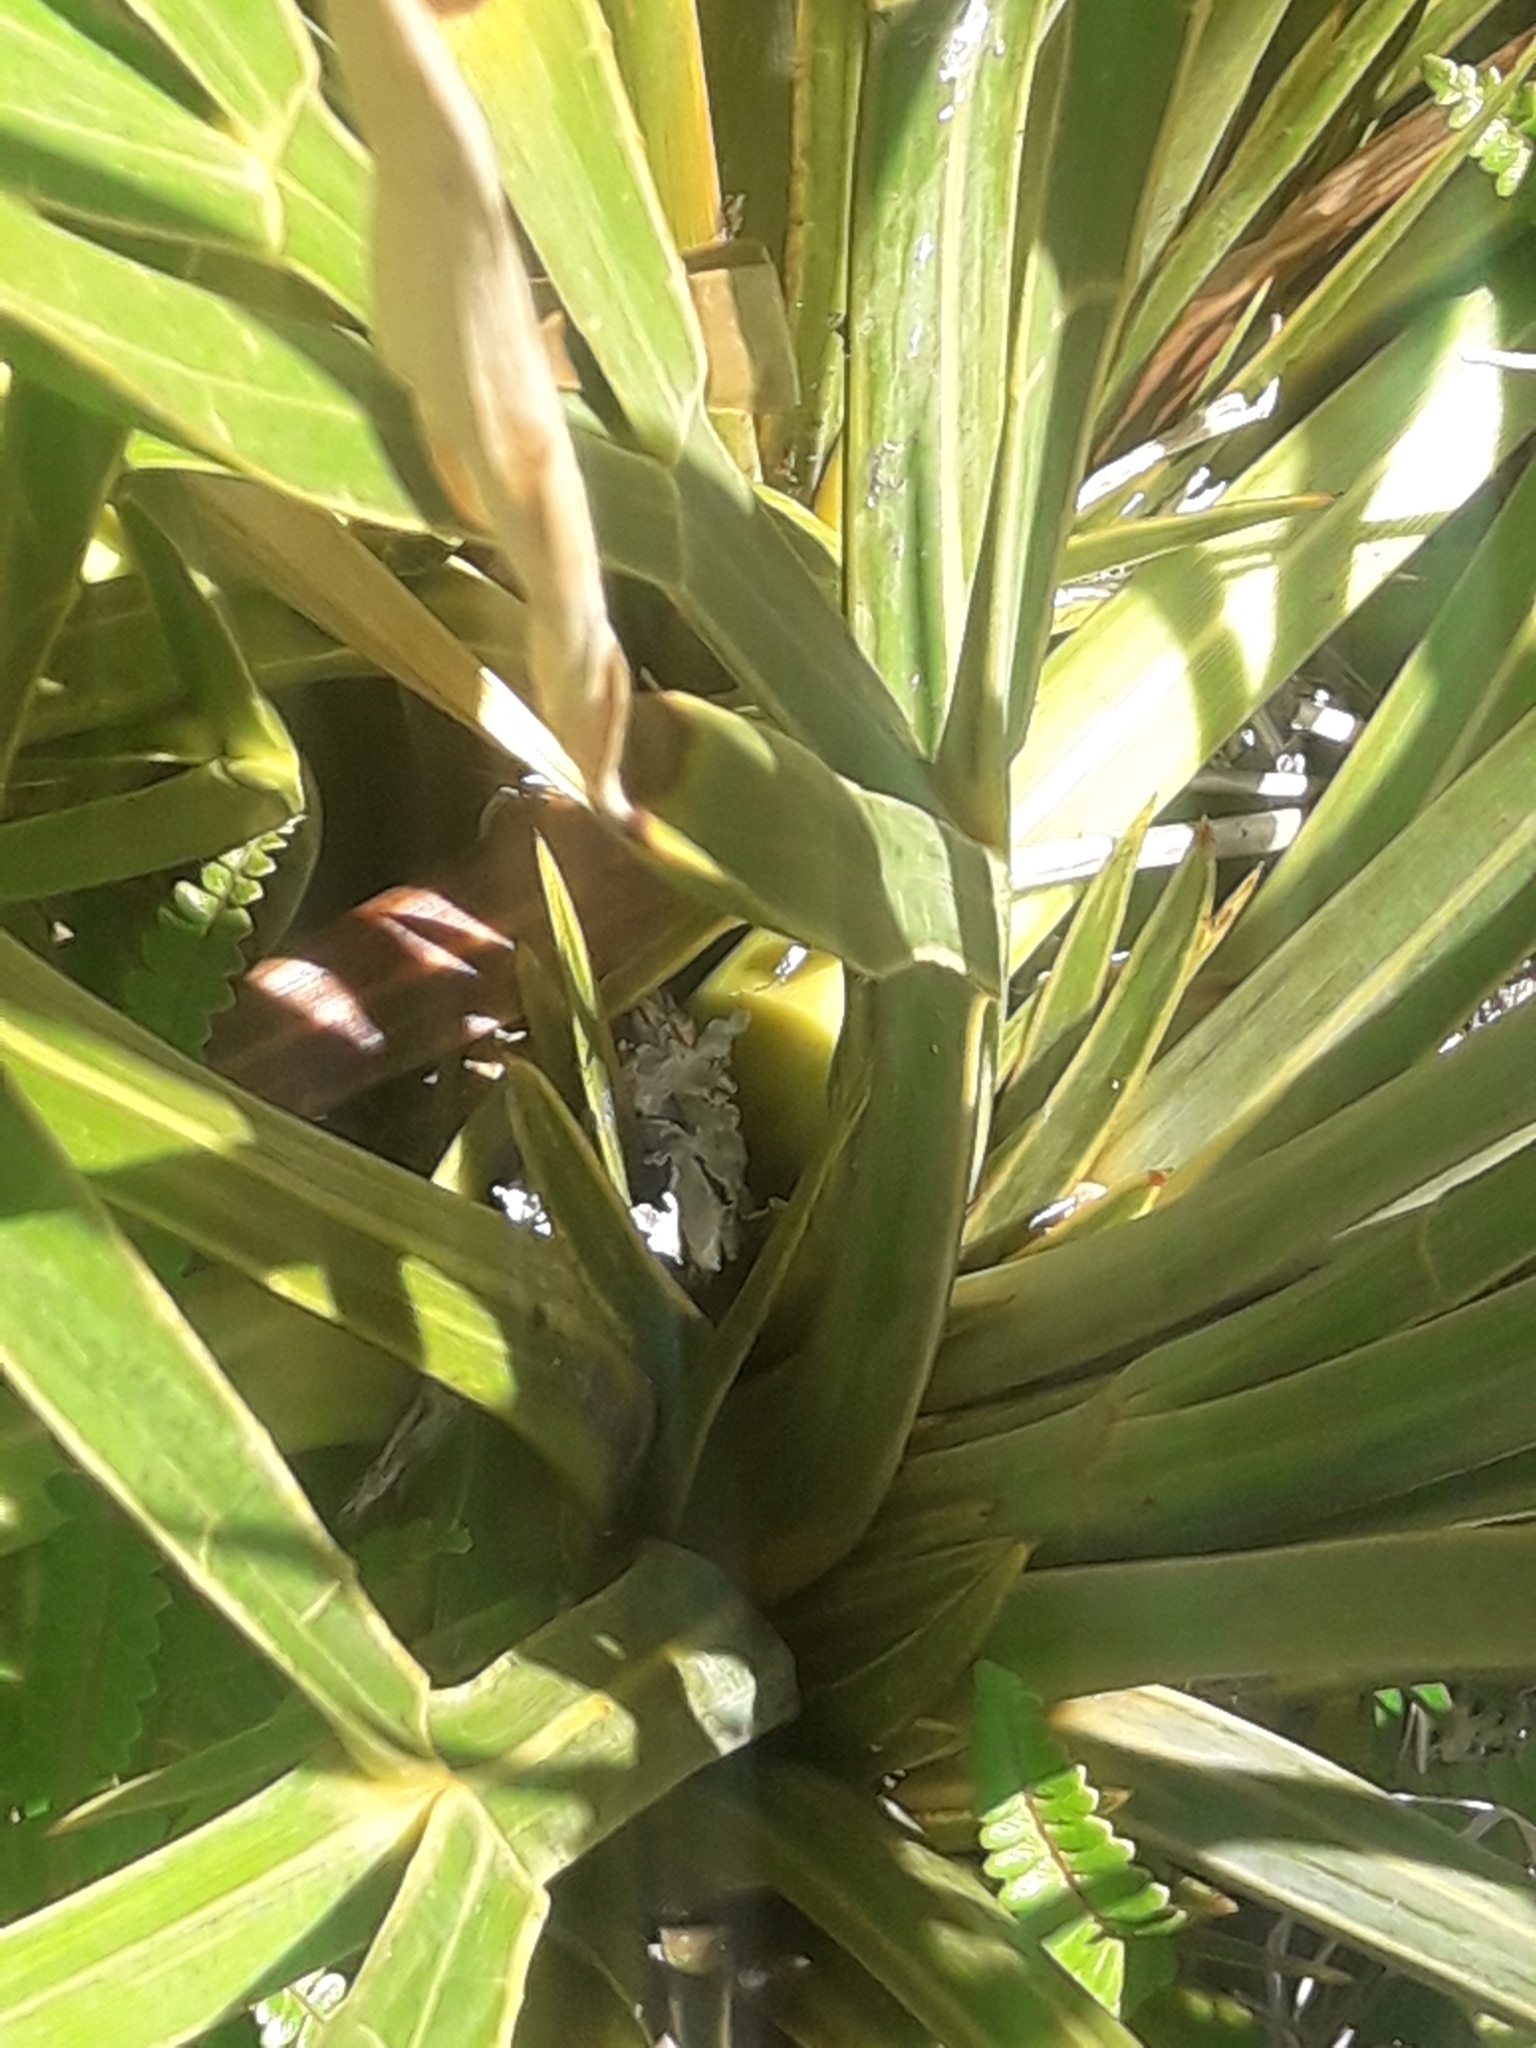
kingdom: Plantae
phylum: Tracheophyta
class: Magnoliopsida
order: Apiales
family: Apiaceae
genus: Aciphylla
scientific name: Aciphylla horrida
